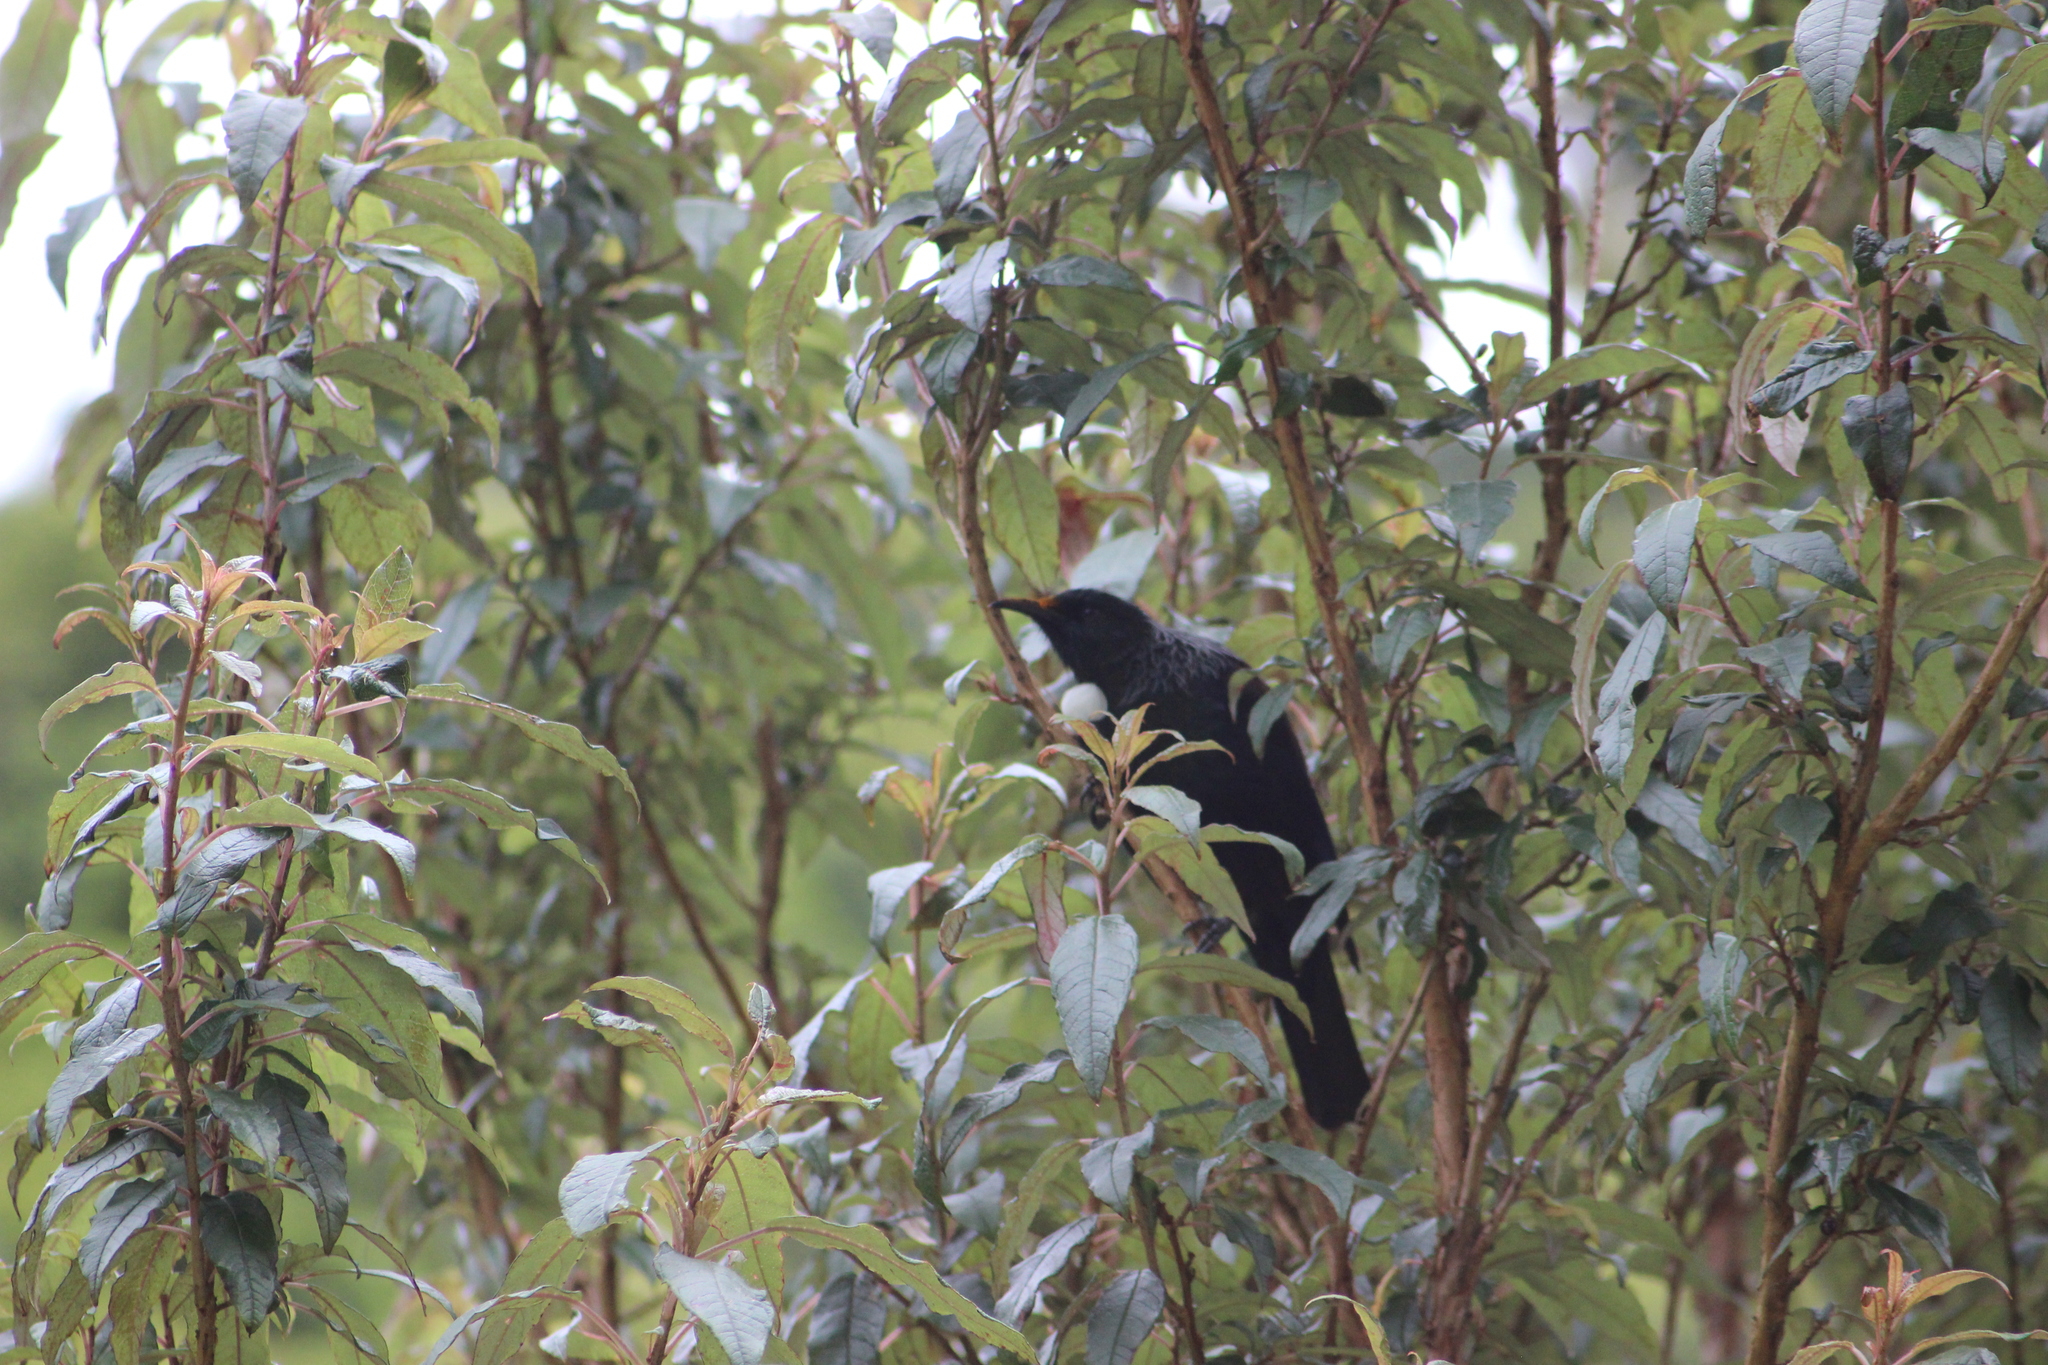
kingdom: Animalia
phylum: Chordata
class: Aves
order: Passeriformes
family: Meliphagidae
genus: Prosthemadera
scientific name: Prosthemadera novaeseelandiae
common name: Tui
